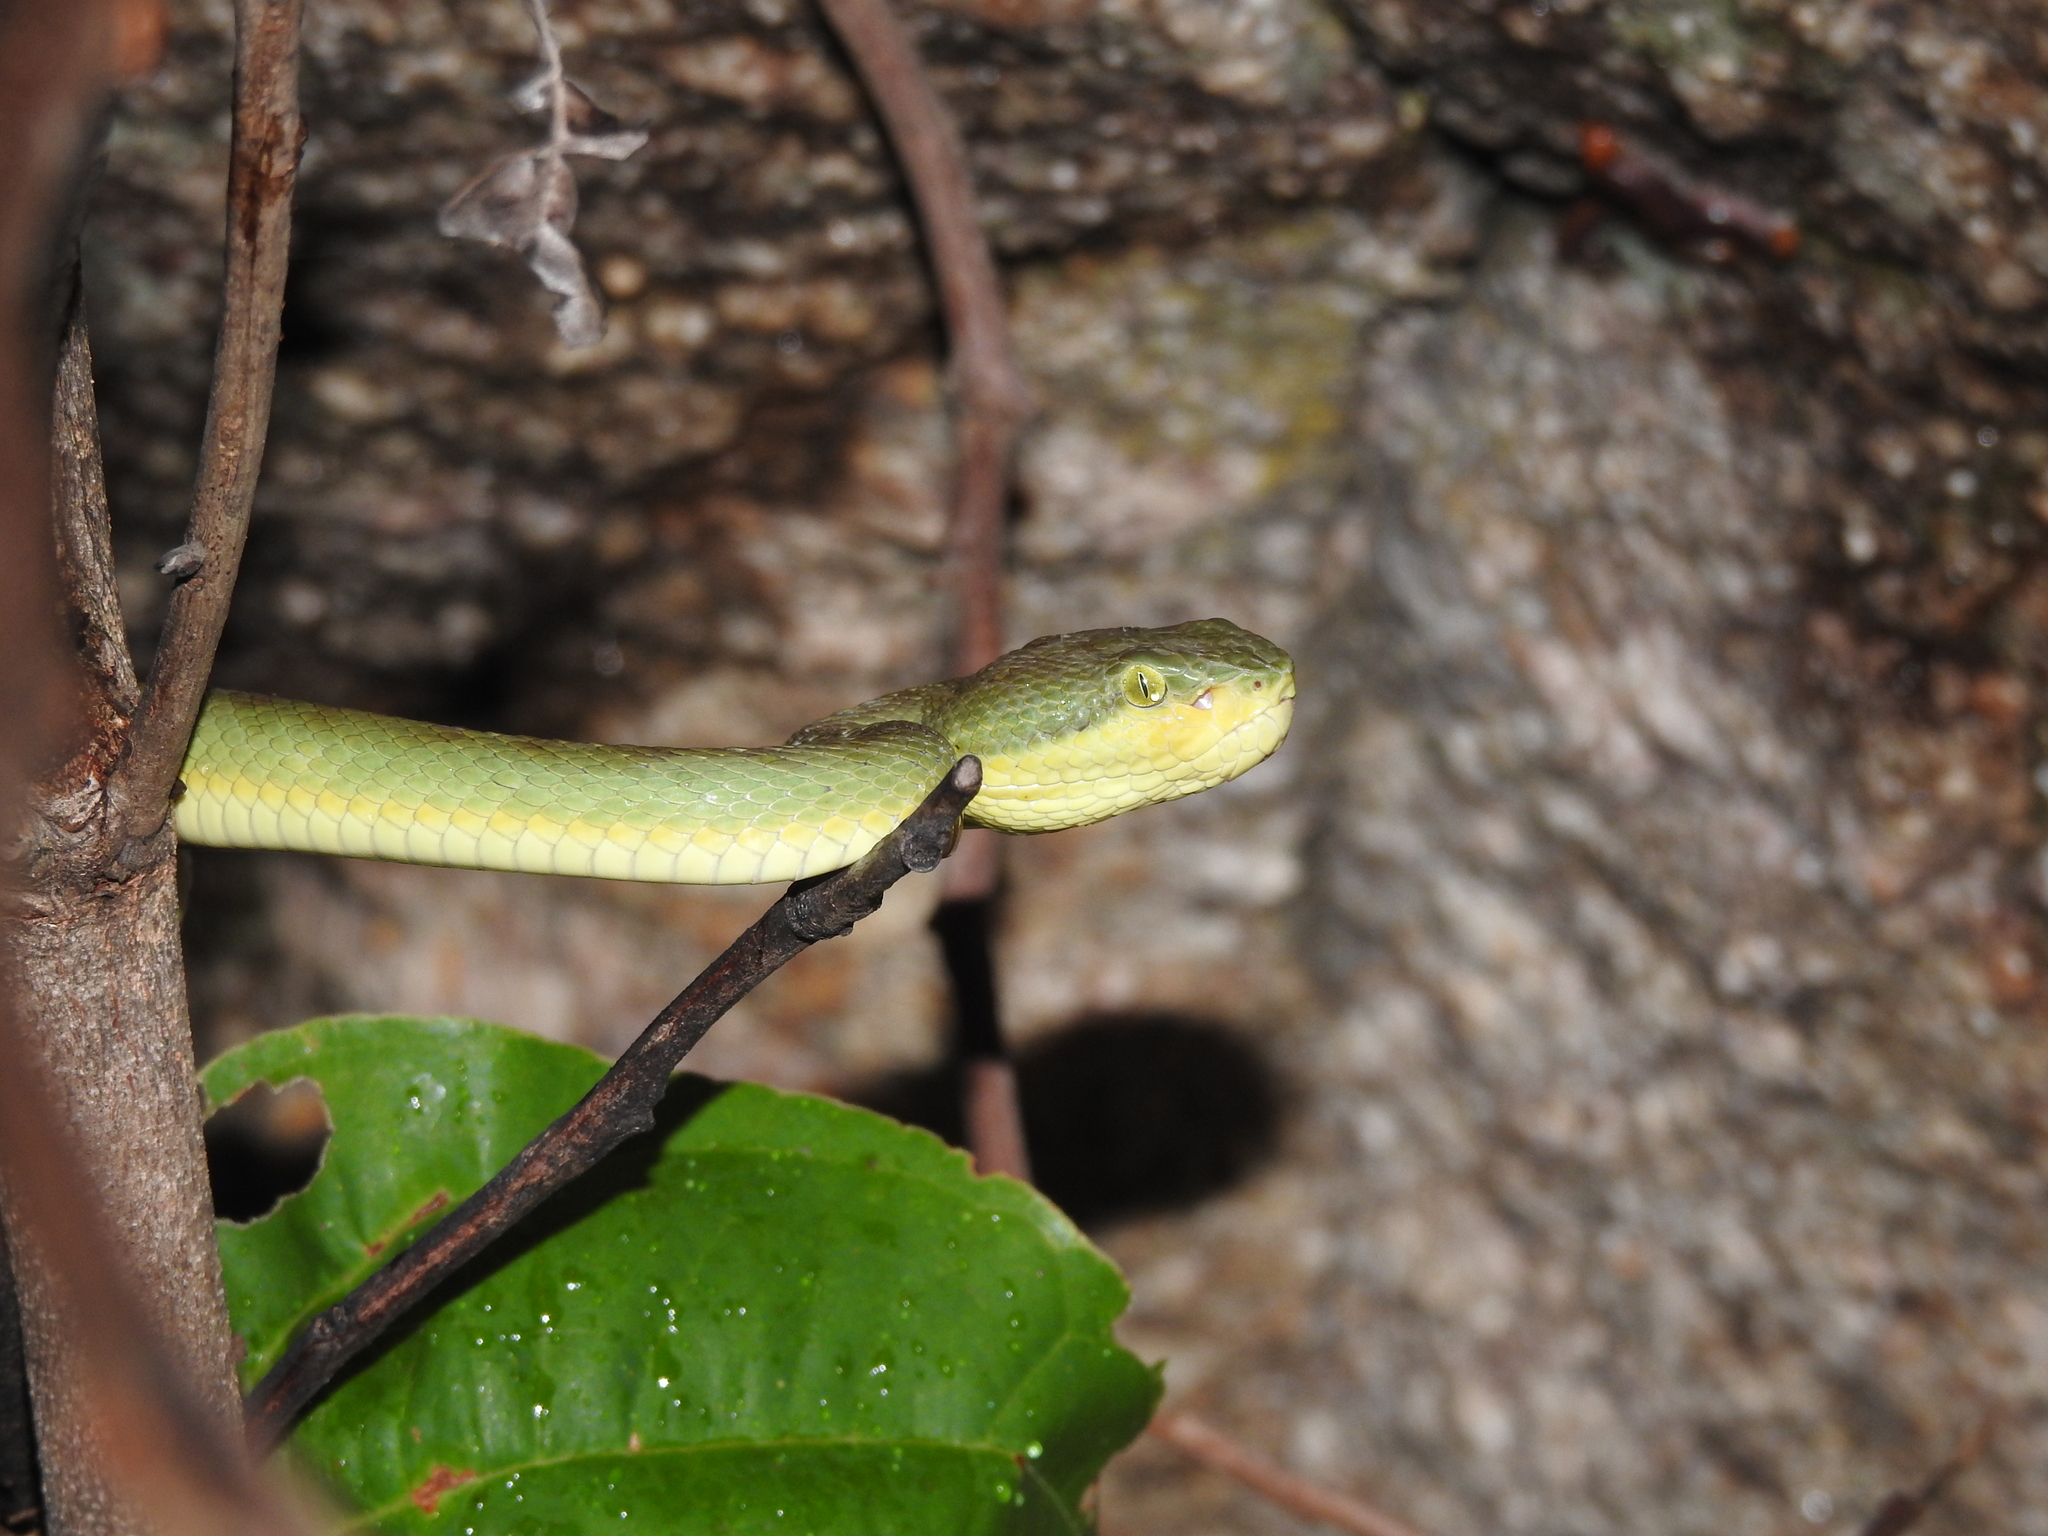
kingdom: Animalia
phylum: Chordata
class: Squamata
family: Viperidae
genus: Craspedocephalus
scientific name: Craspedocephalus gramineus
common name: Common bamboo viper
